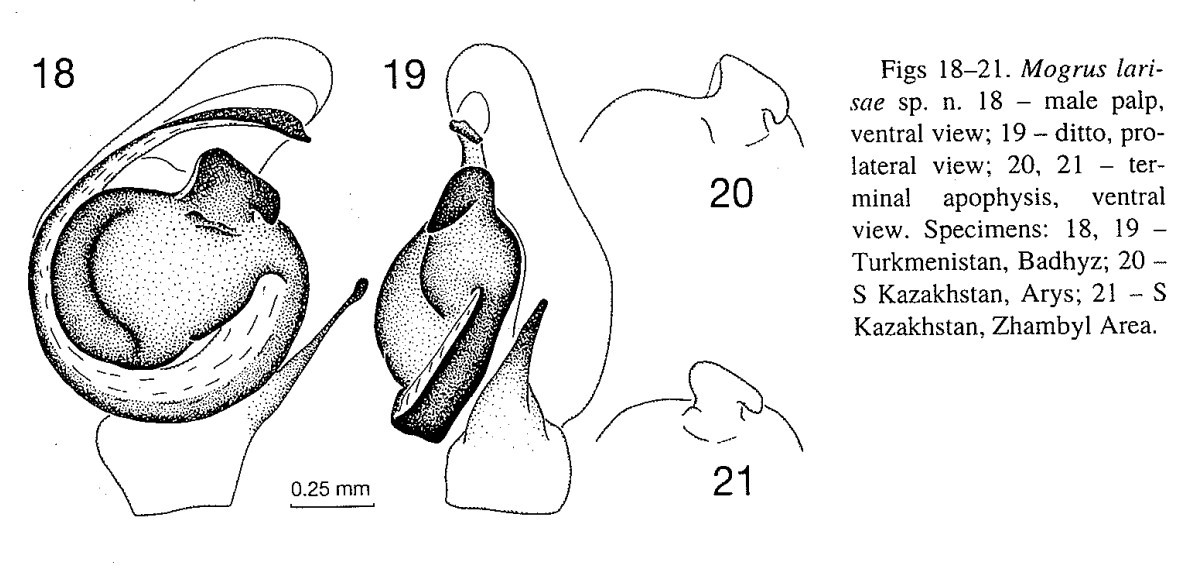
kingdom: Animalia
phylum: Arthropoda
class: Arachnida
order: Araneae
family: Salticidae
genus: Mogrus
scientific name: Mogrus larisae
